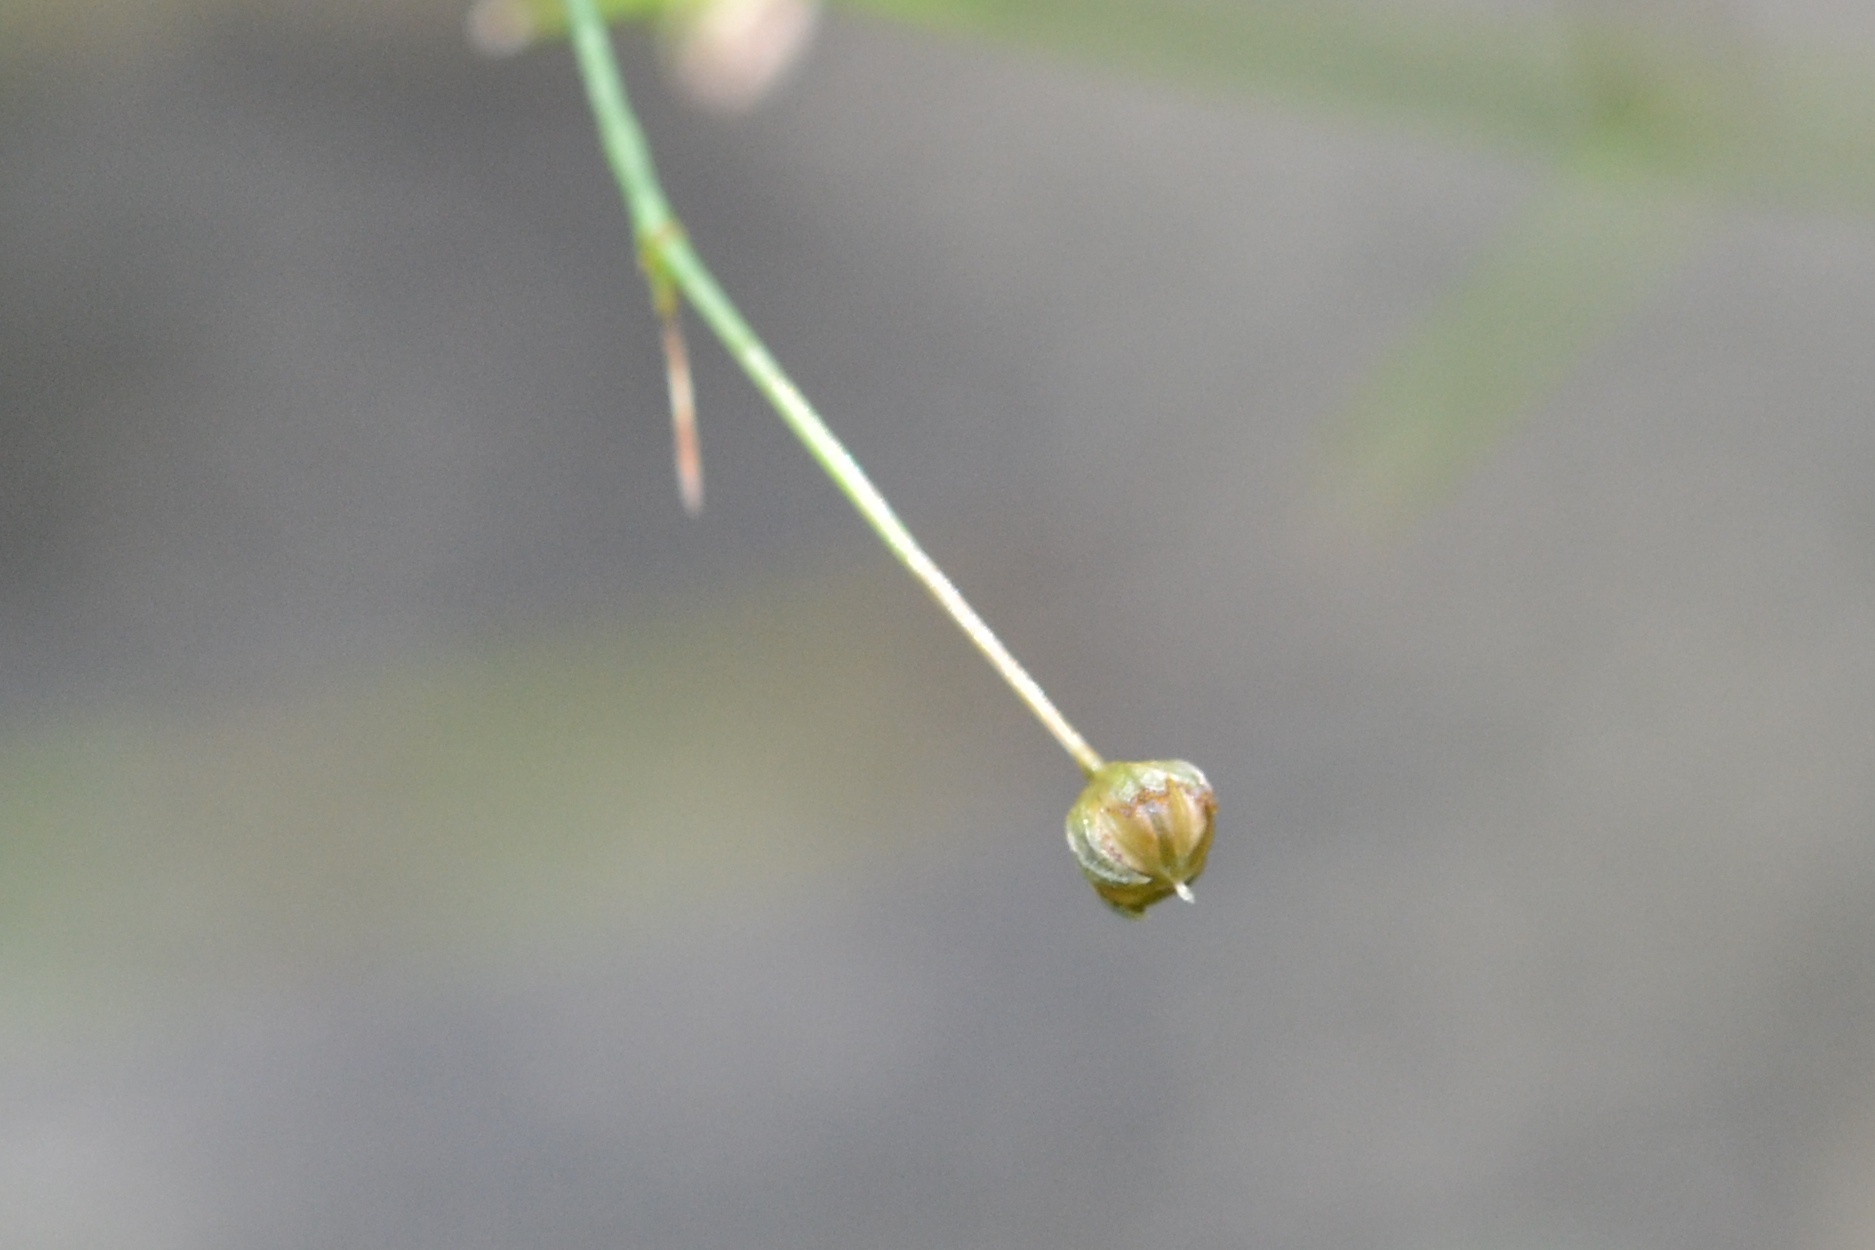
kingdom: Plantae
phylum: Tracheophyta
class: Magnoliopsida
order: Malpighiales
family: Linaceae
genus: Linum
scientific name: Linum catharticum
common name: Fairy flax
